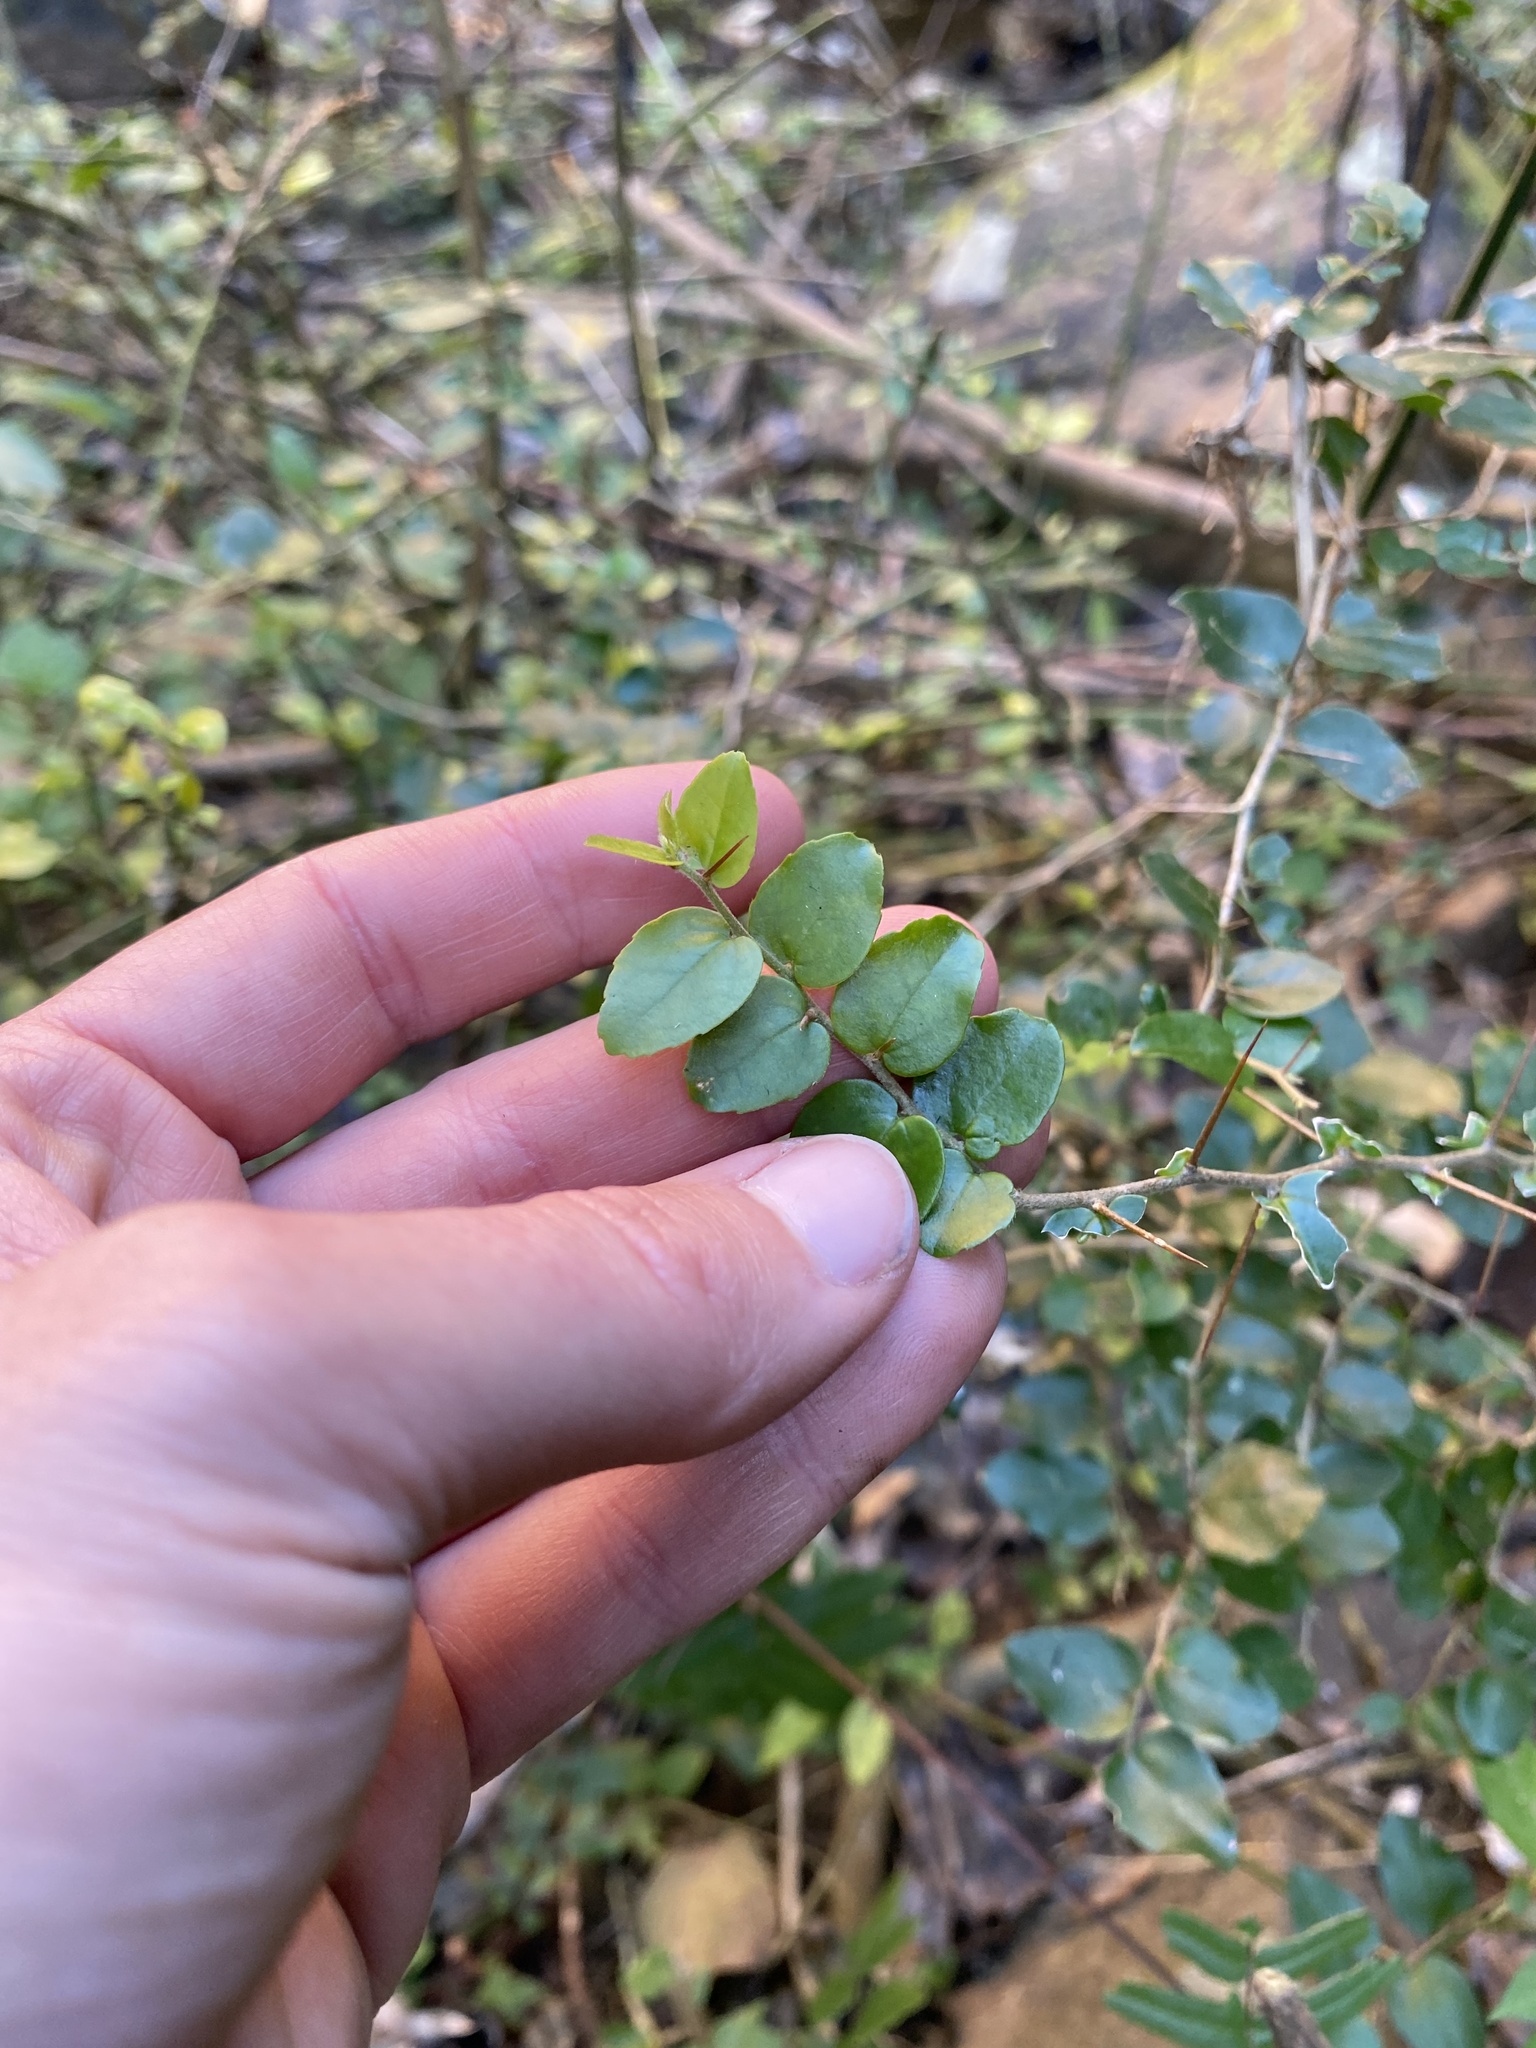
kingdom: Plantae
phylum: Tracheophyta
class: Magnoliopsida
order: Malpighiales
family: Salicaceae
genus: Dovyalis
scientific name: Dovyalis rhamnoides
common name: Sourberry
